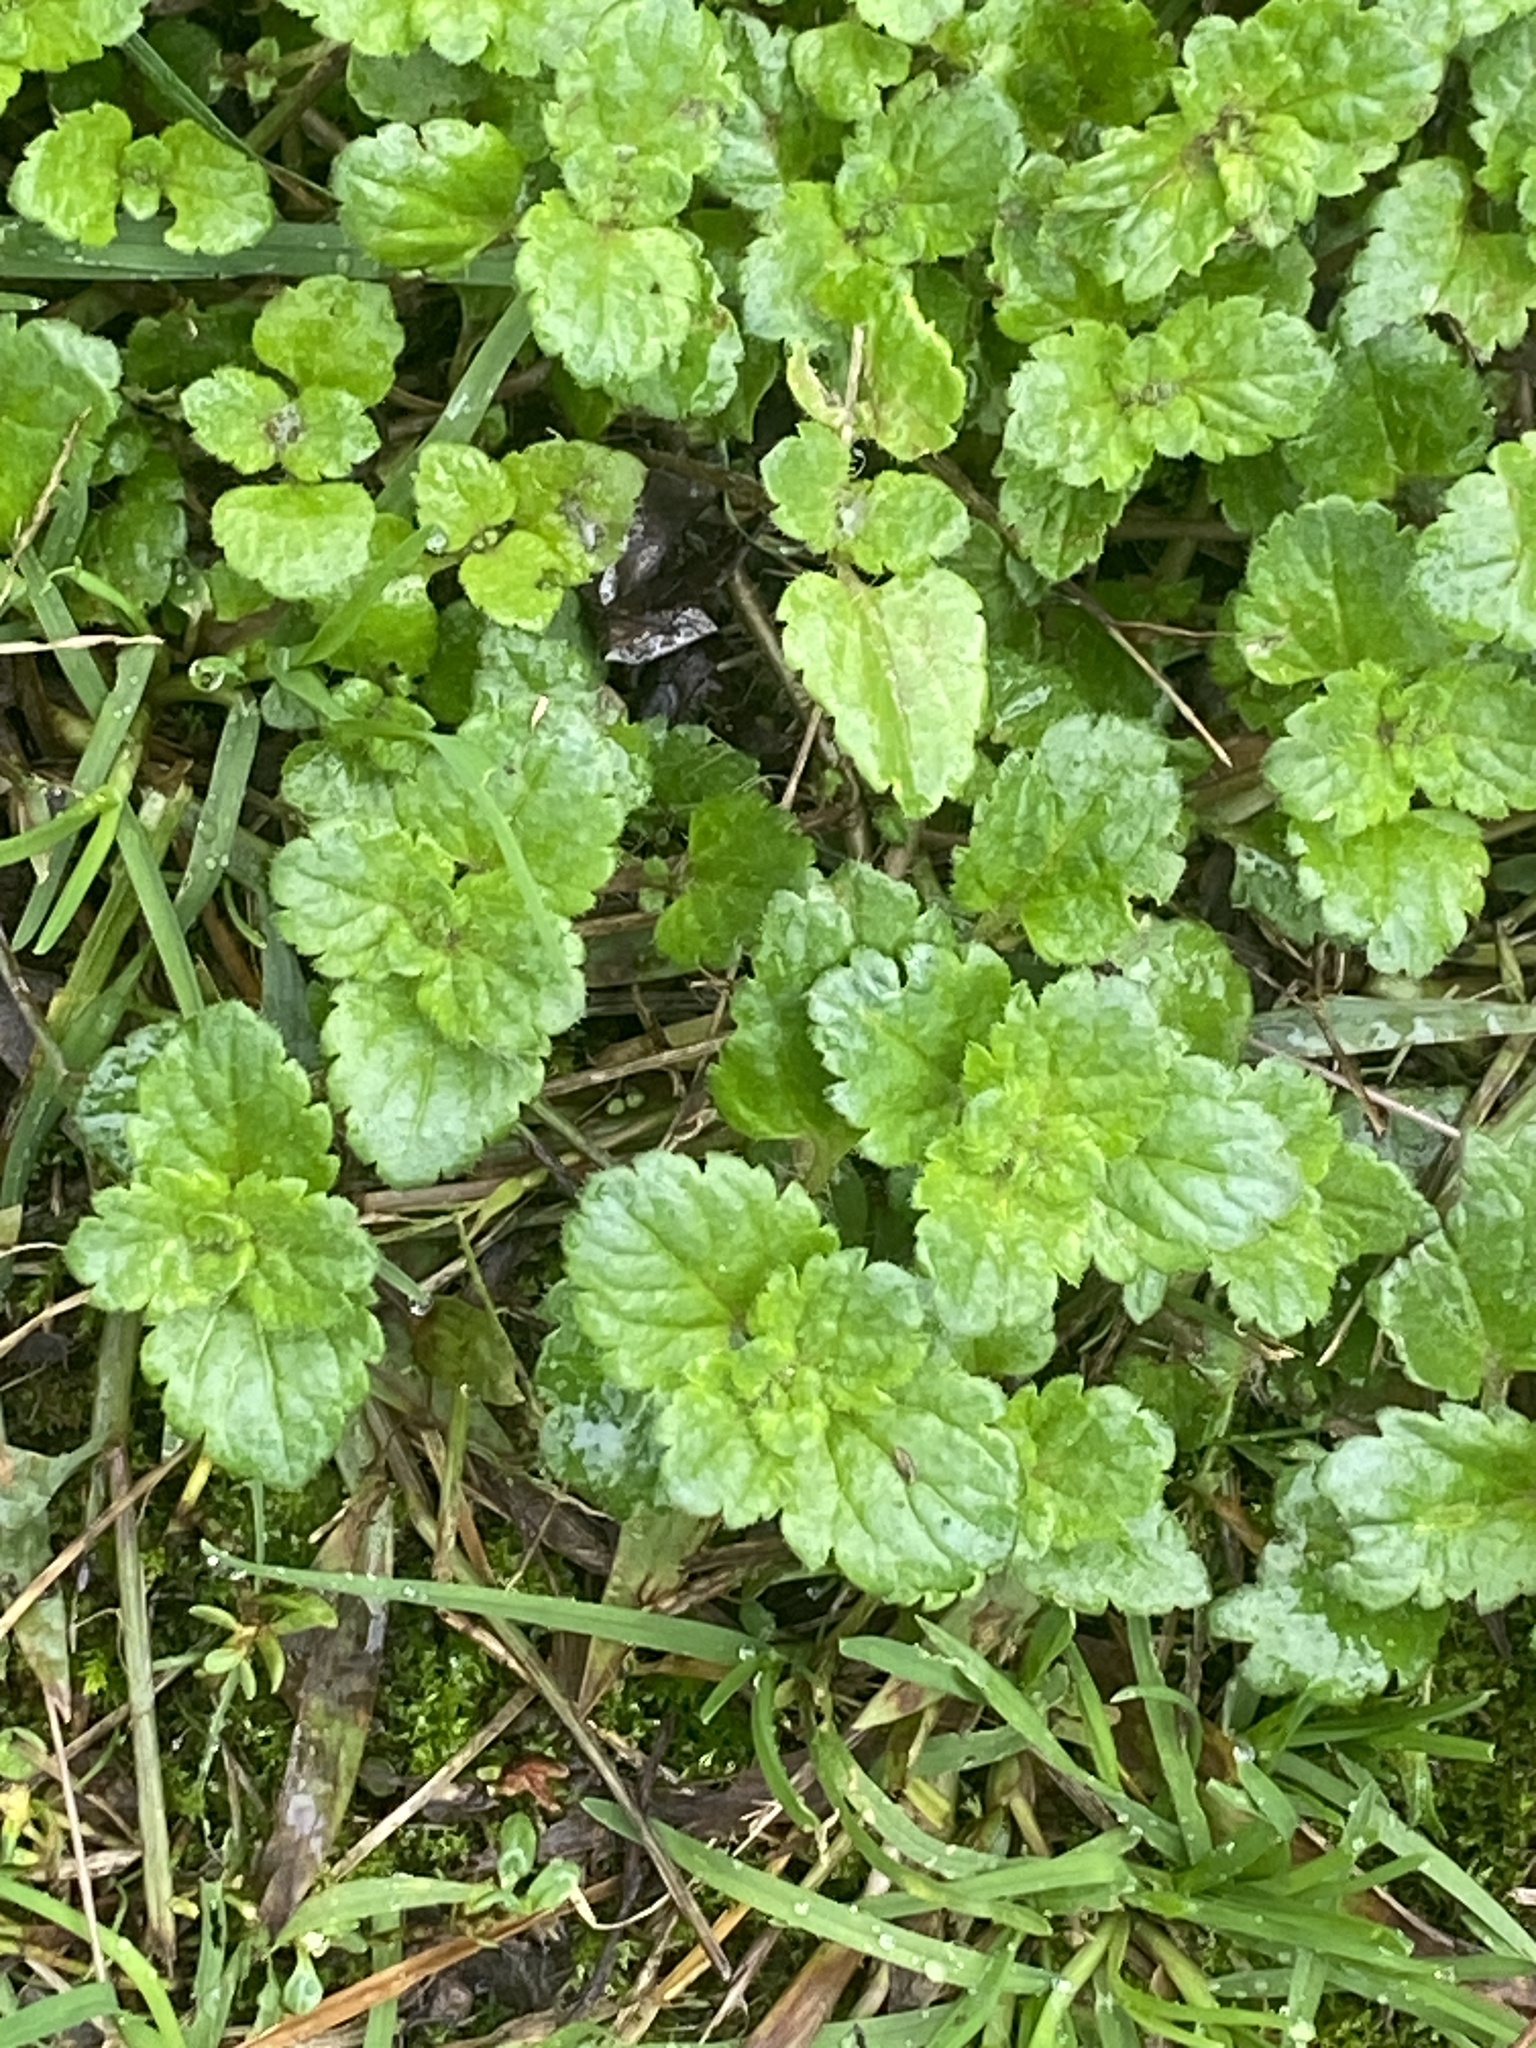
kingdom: Plantae
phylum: Tracheophyta
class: Magnoliopsida
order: Lamiales
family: Plantaginaceae
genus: Veronica
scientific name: Veronica persica
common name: Common field-speedwell
